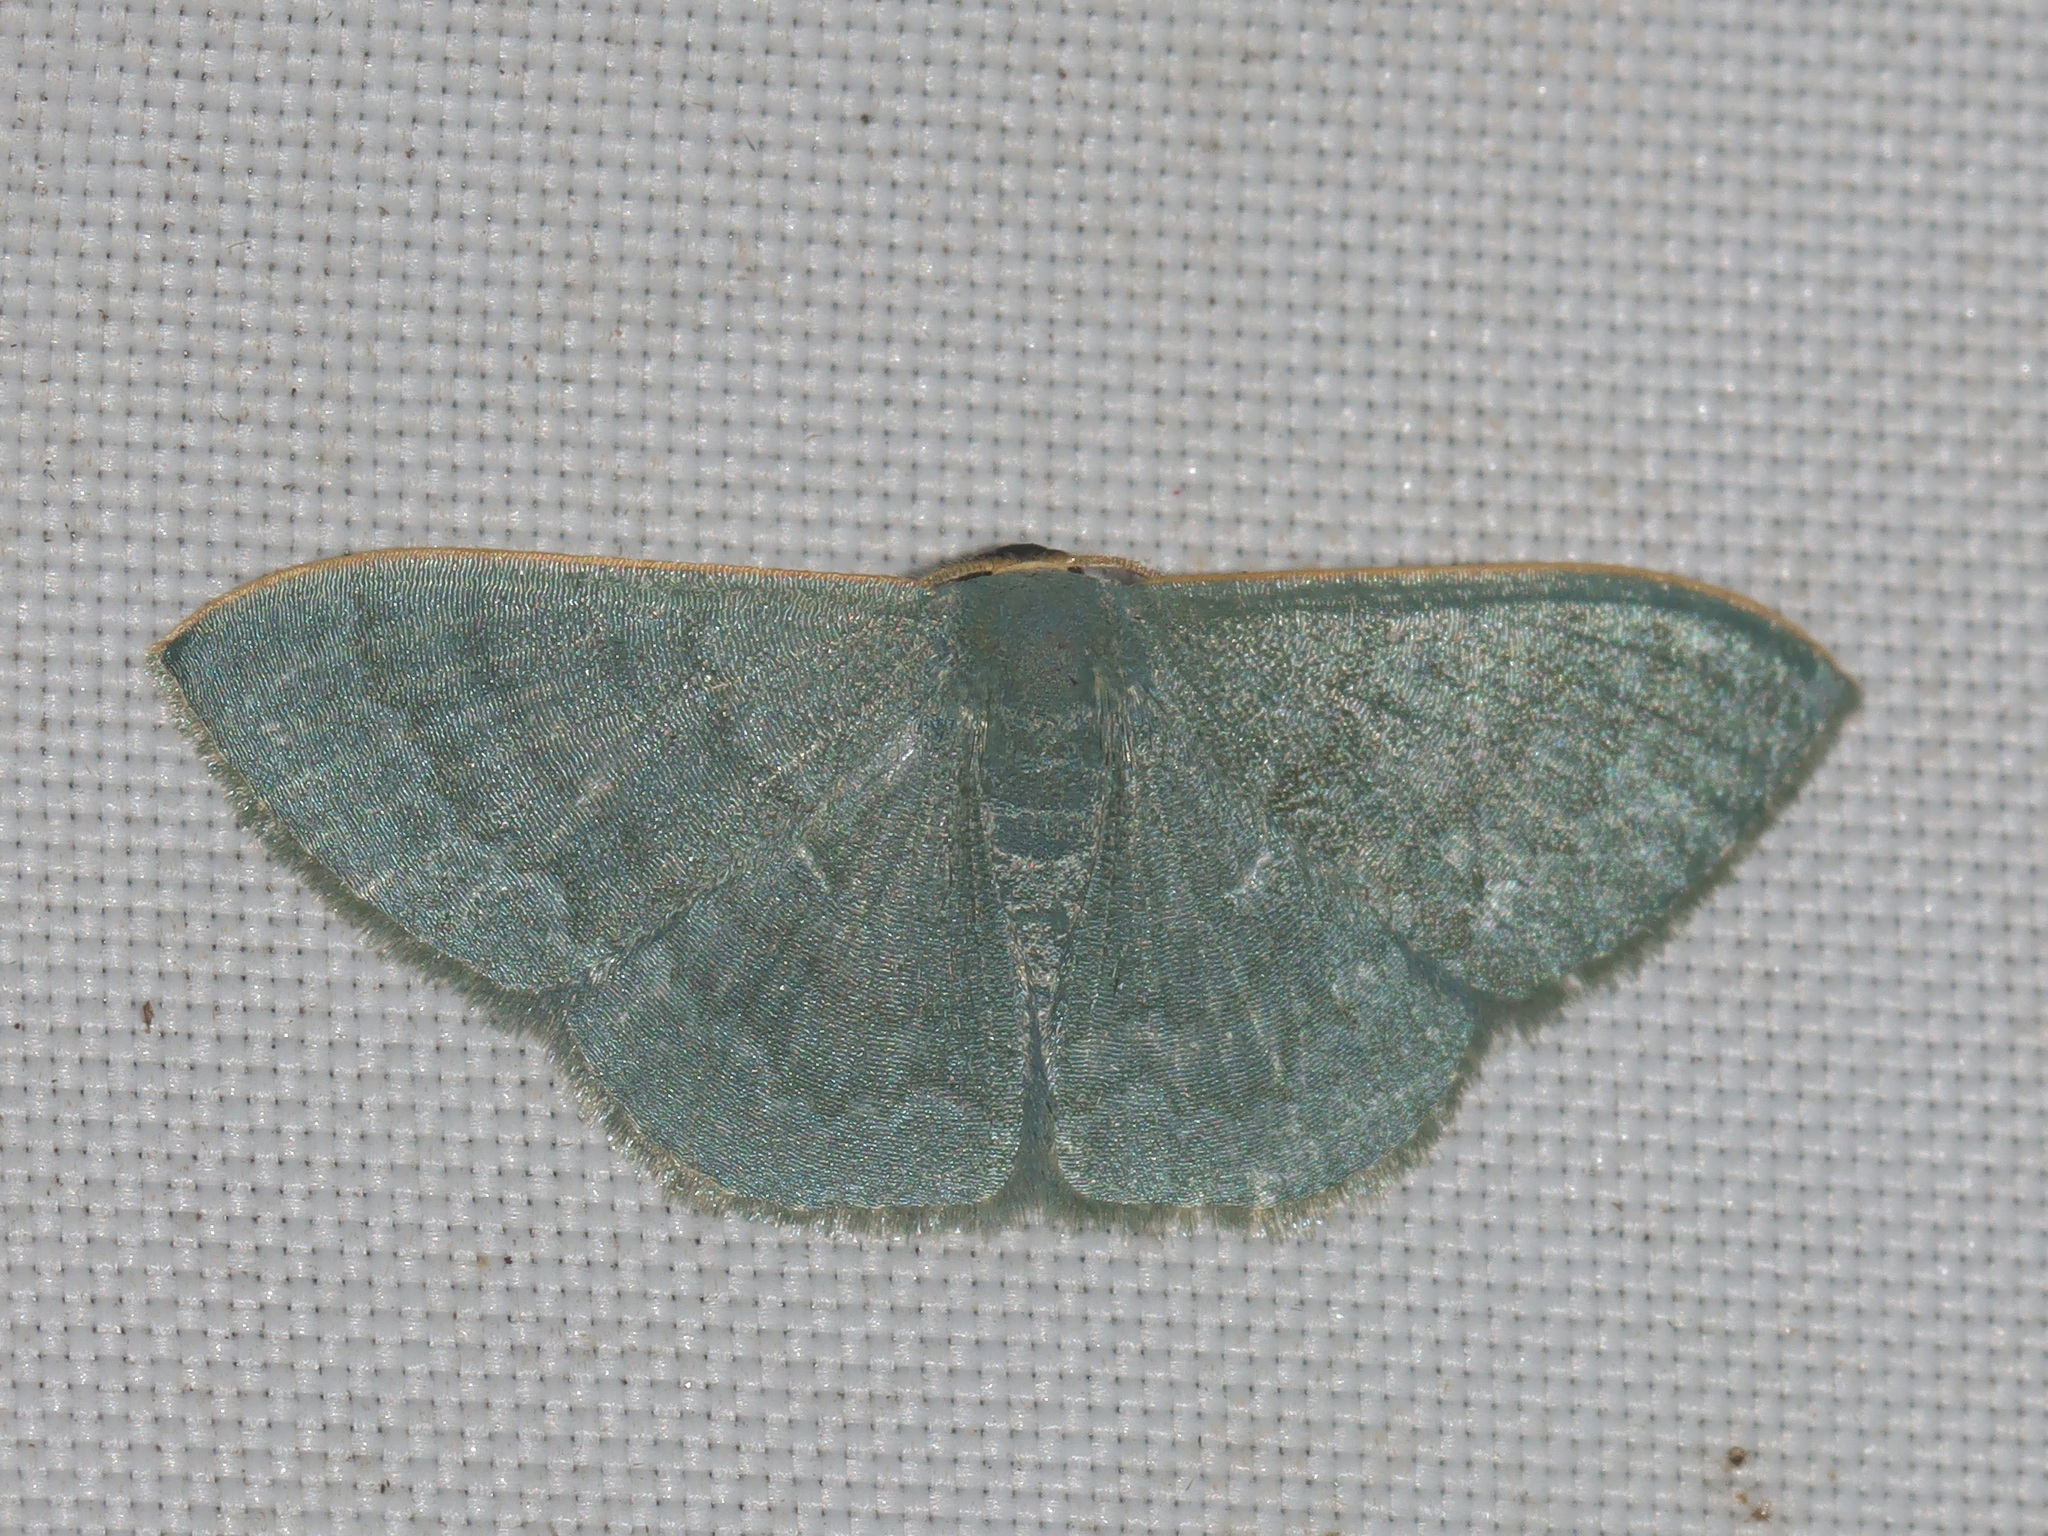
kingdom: Animalia
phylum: Arthropoda
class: Insecta
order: Lepidoptera
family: Geometridae
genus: Symmacra
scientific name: Symmacra solidaria
